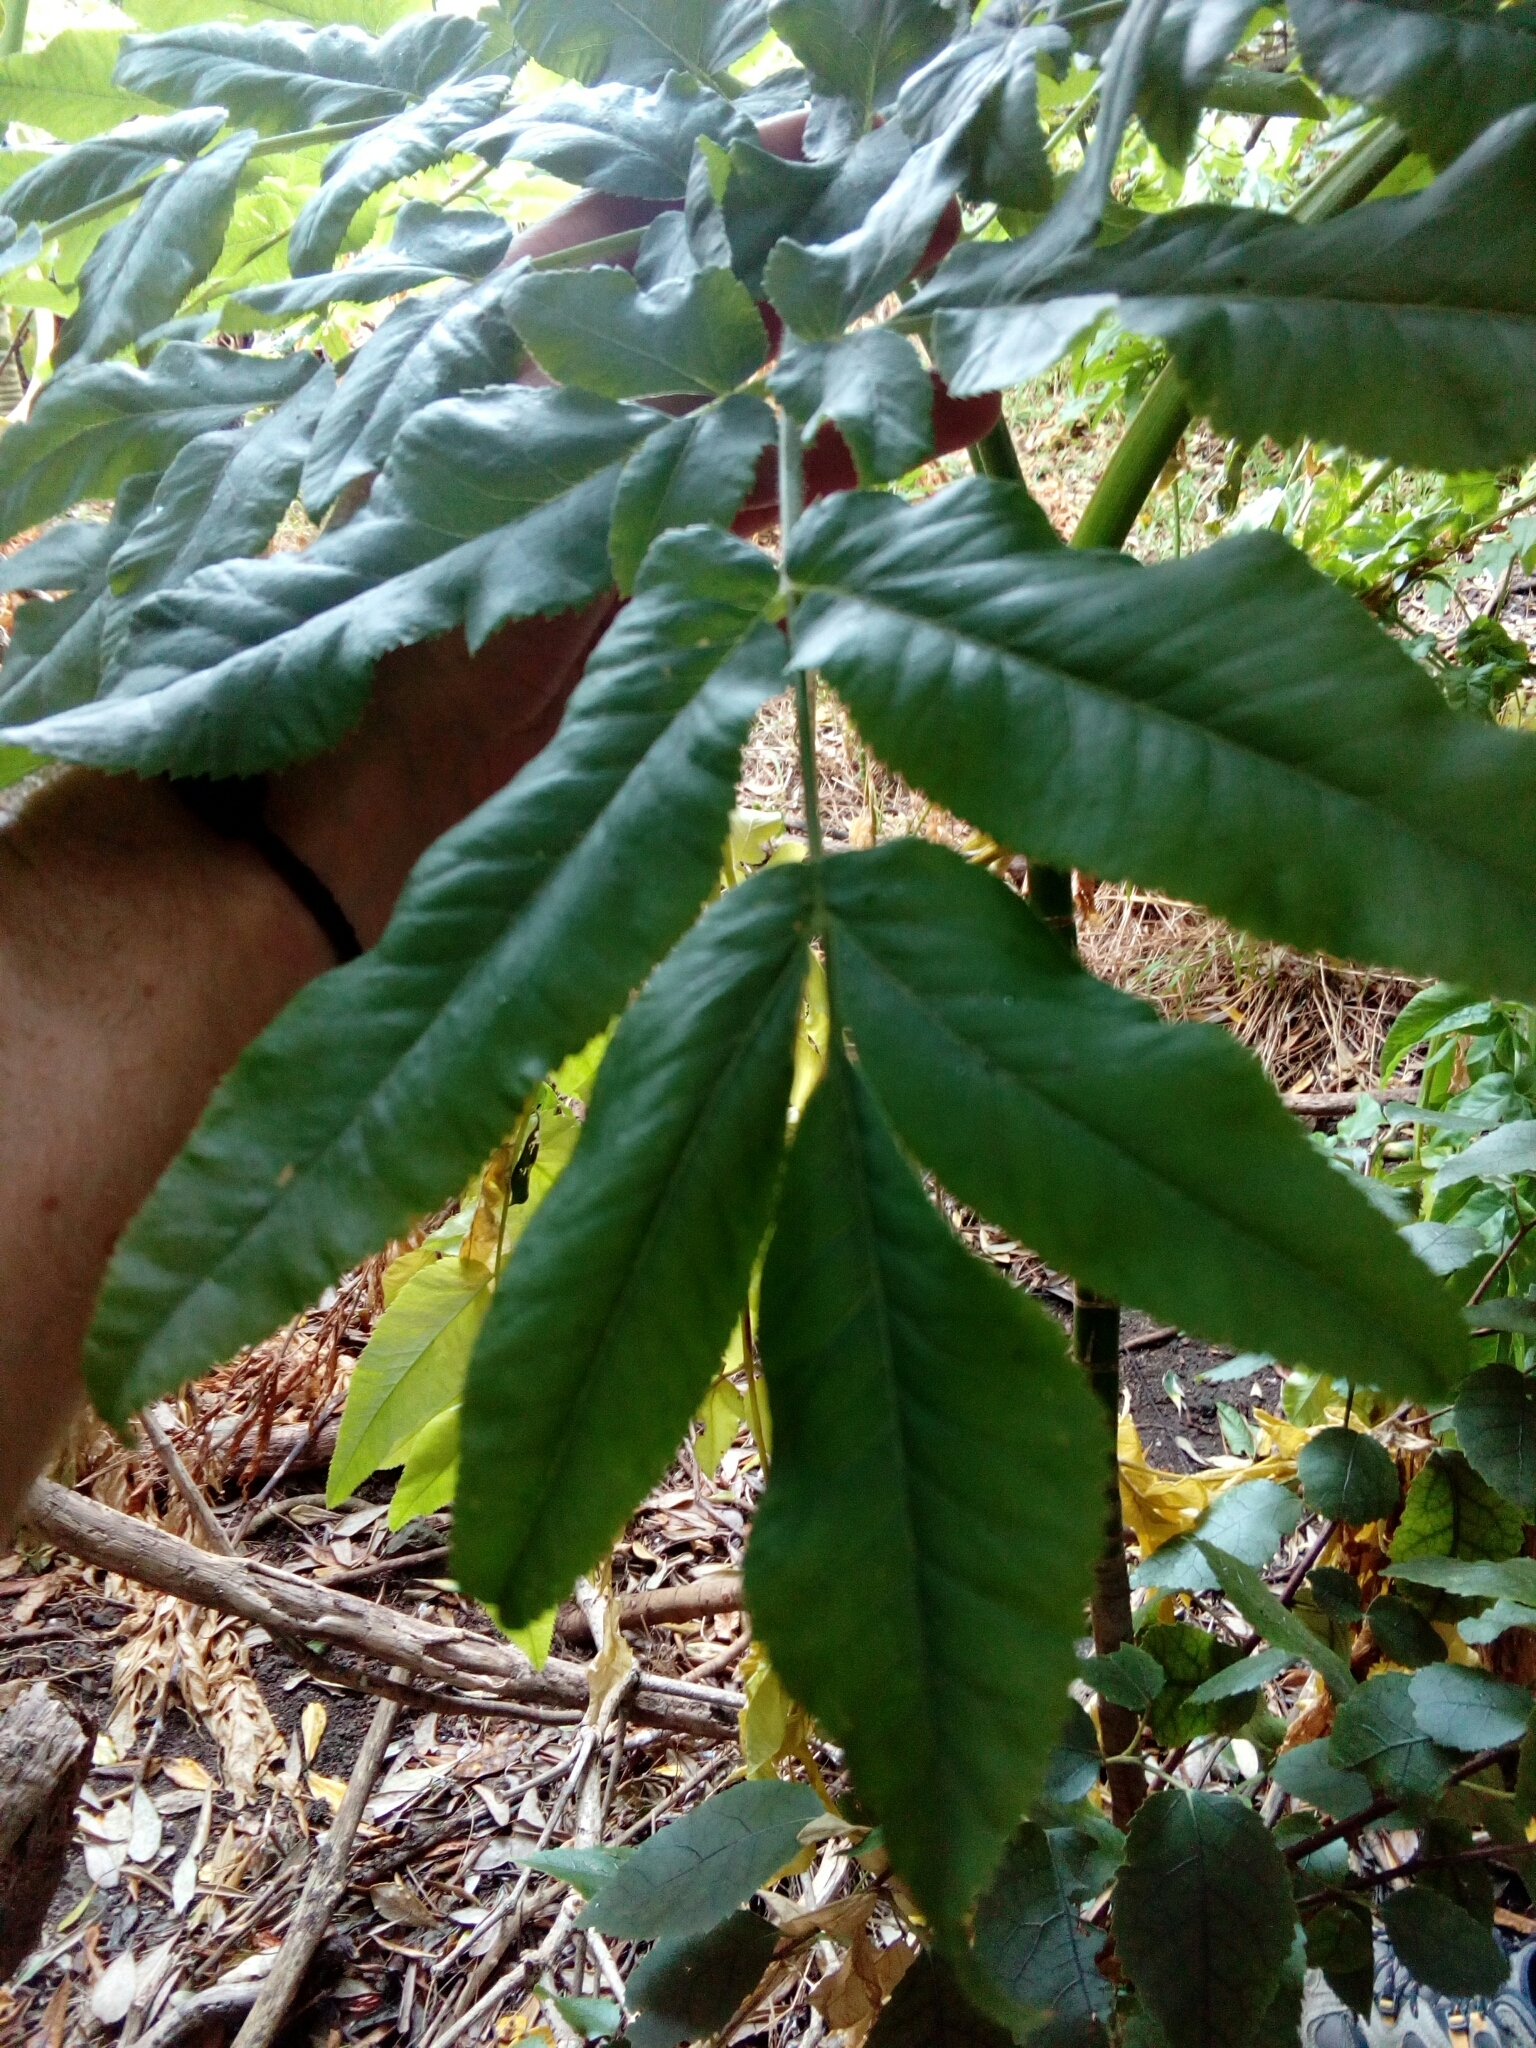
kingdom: Plantae
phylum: Tracheophyta
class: Magnoliopsida
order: Apiales
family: Apiaceae
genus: Daucus
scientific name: Daucus decipiens
